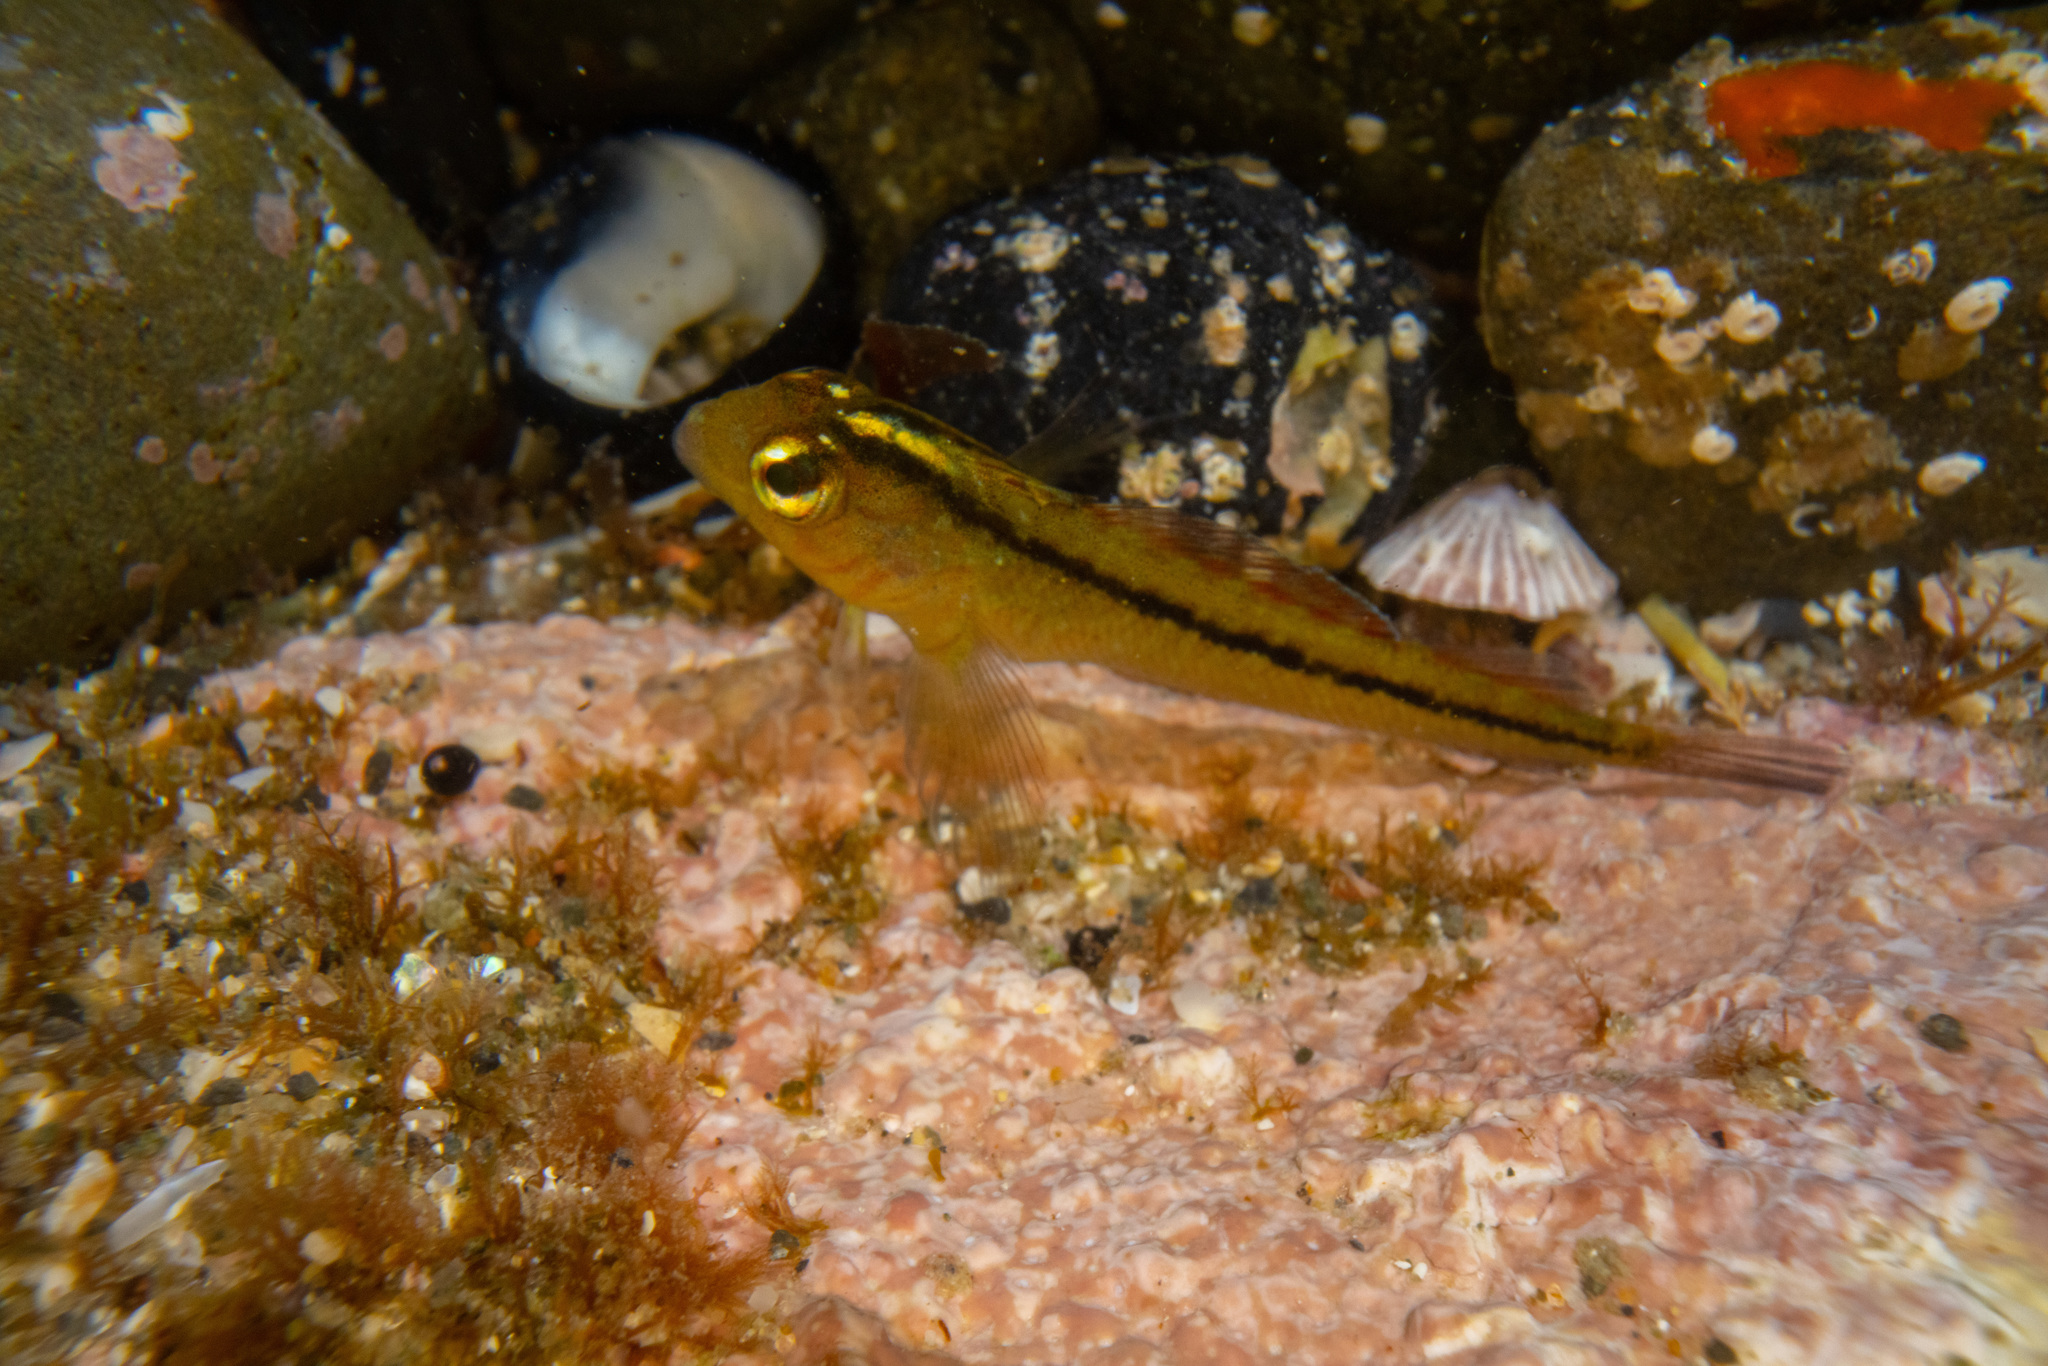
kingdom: Animalia
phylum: Chordata
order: Perciformes
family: Tripterygiidae
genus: Forsterygion
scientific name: Forsterygion lapillum
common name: Common triplefin
